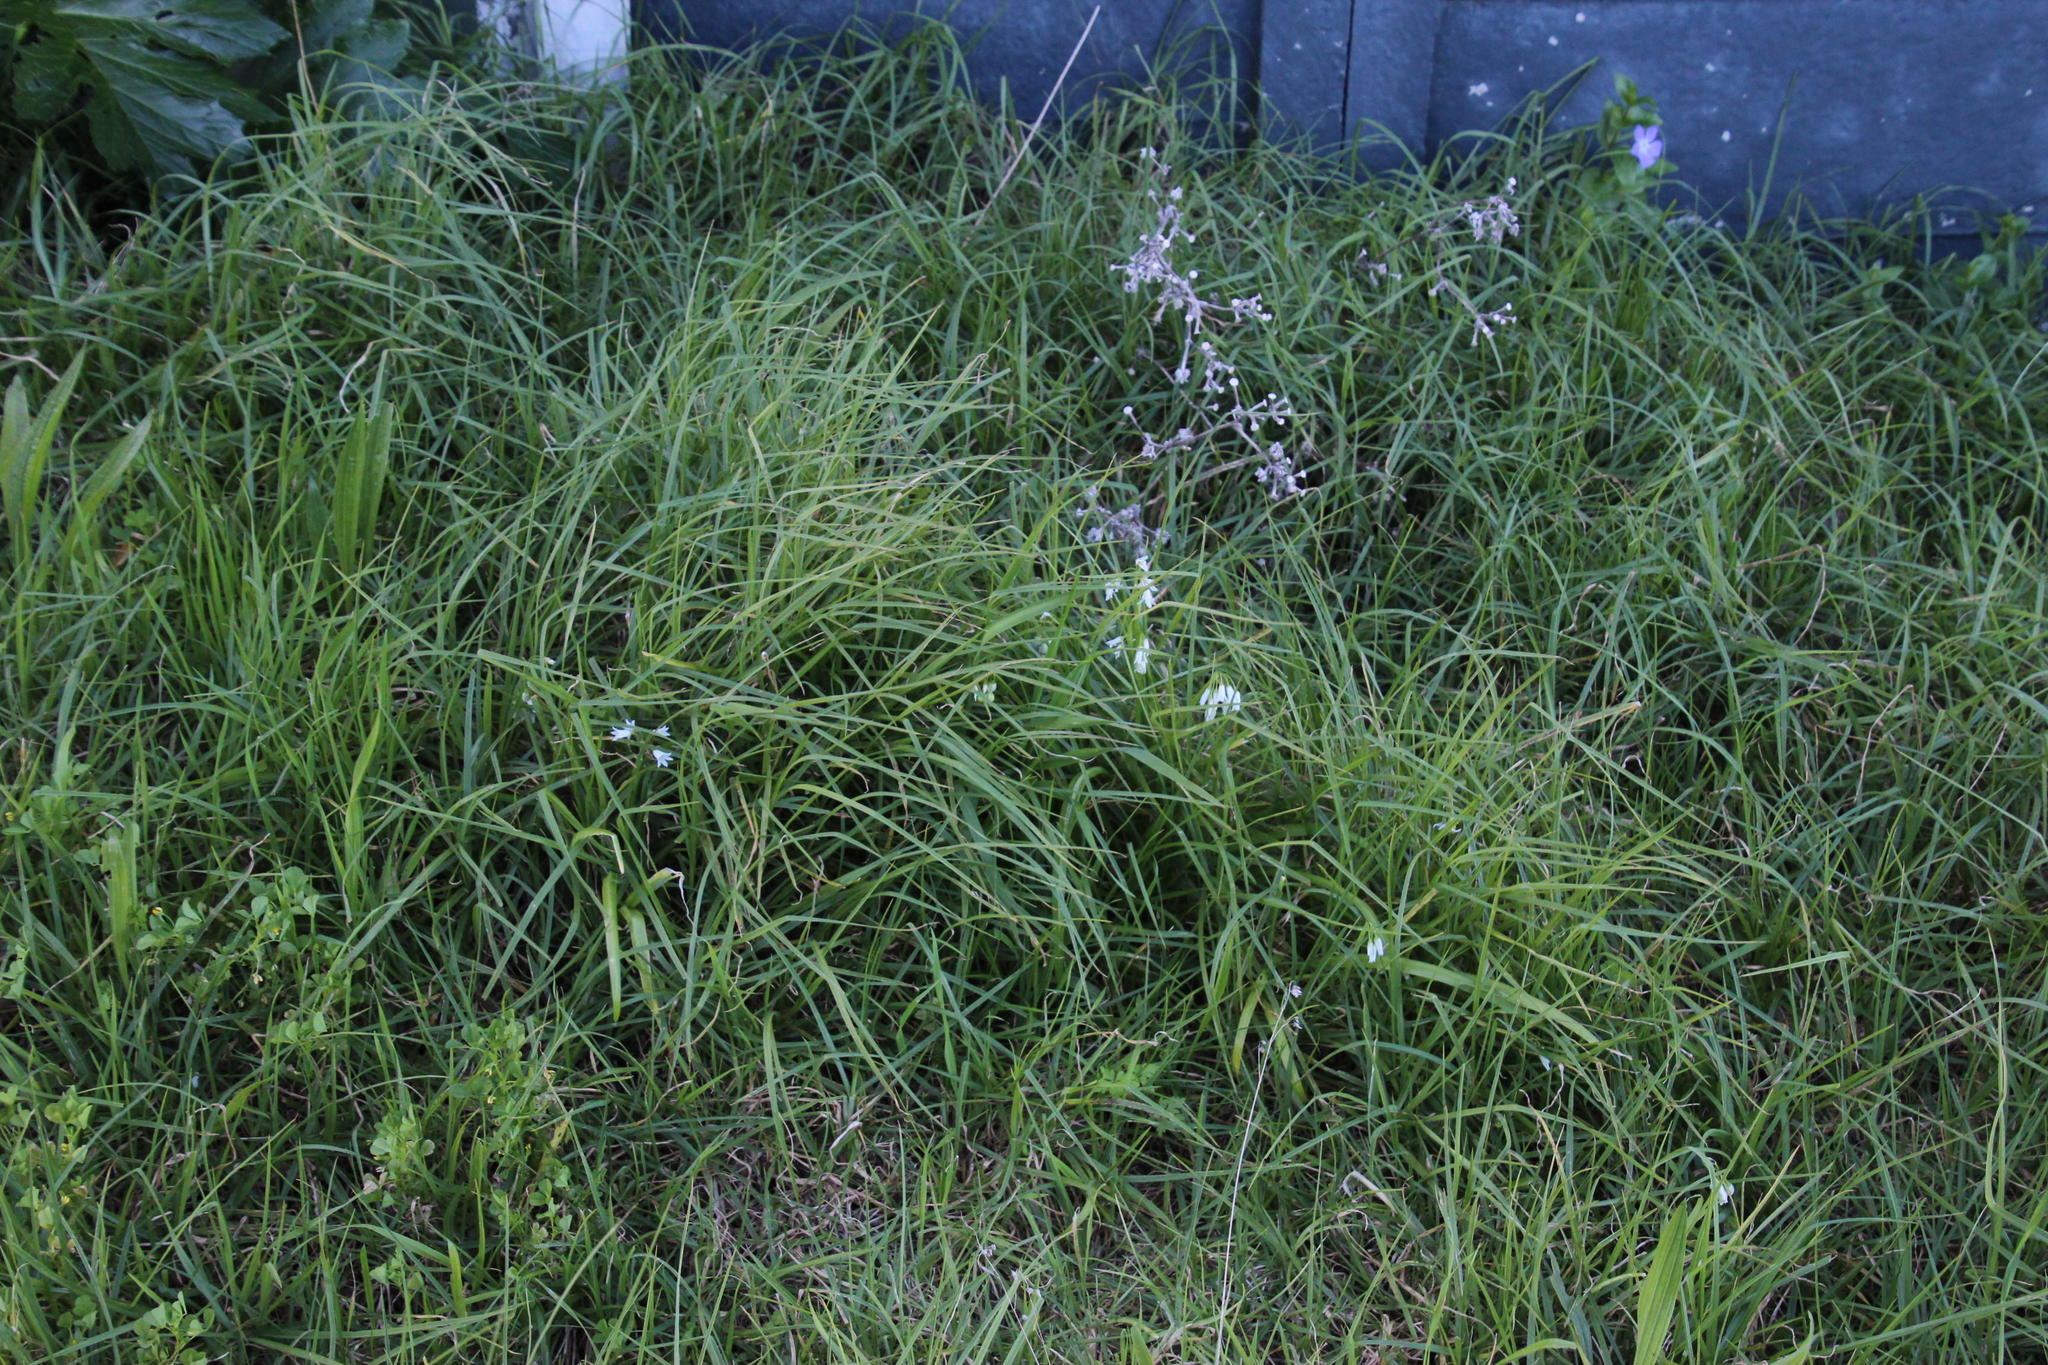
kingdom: Plantae
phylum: Tracheophyta
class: Liliopsida
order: Asparagales
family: Amaryllidaceae
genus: Allium
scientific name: Allium triquetrum
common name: Three-cornered garlic
